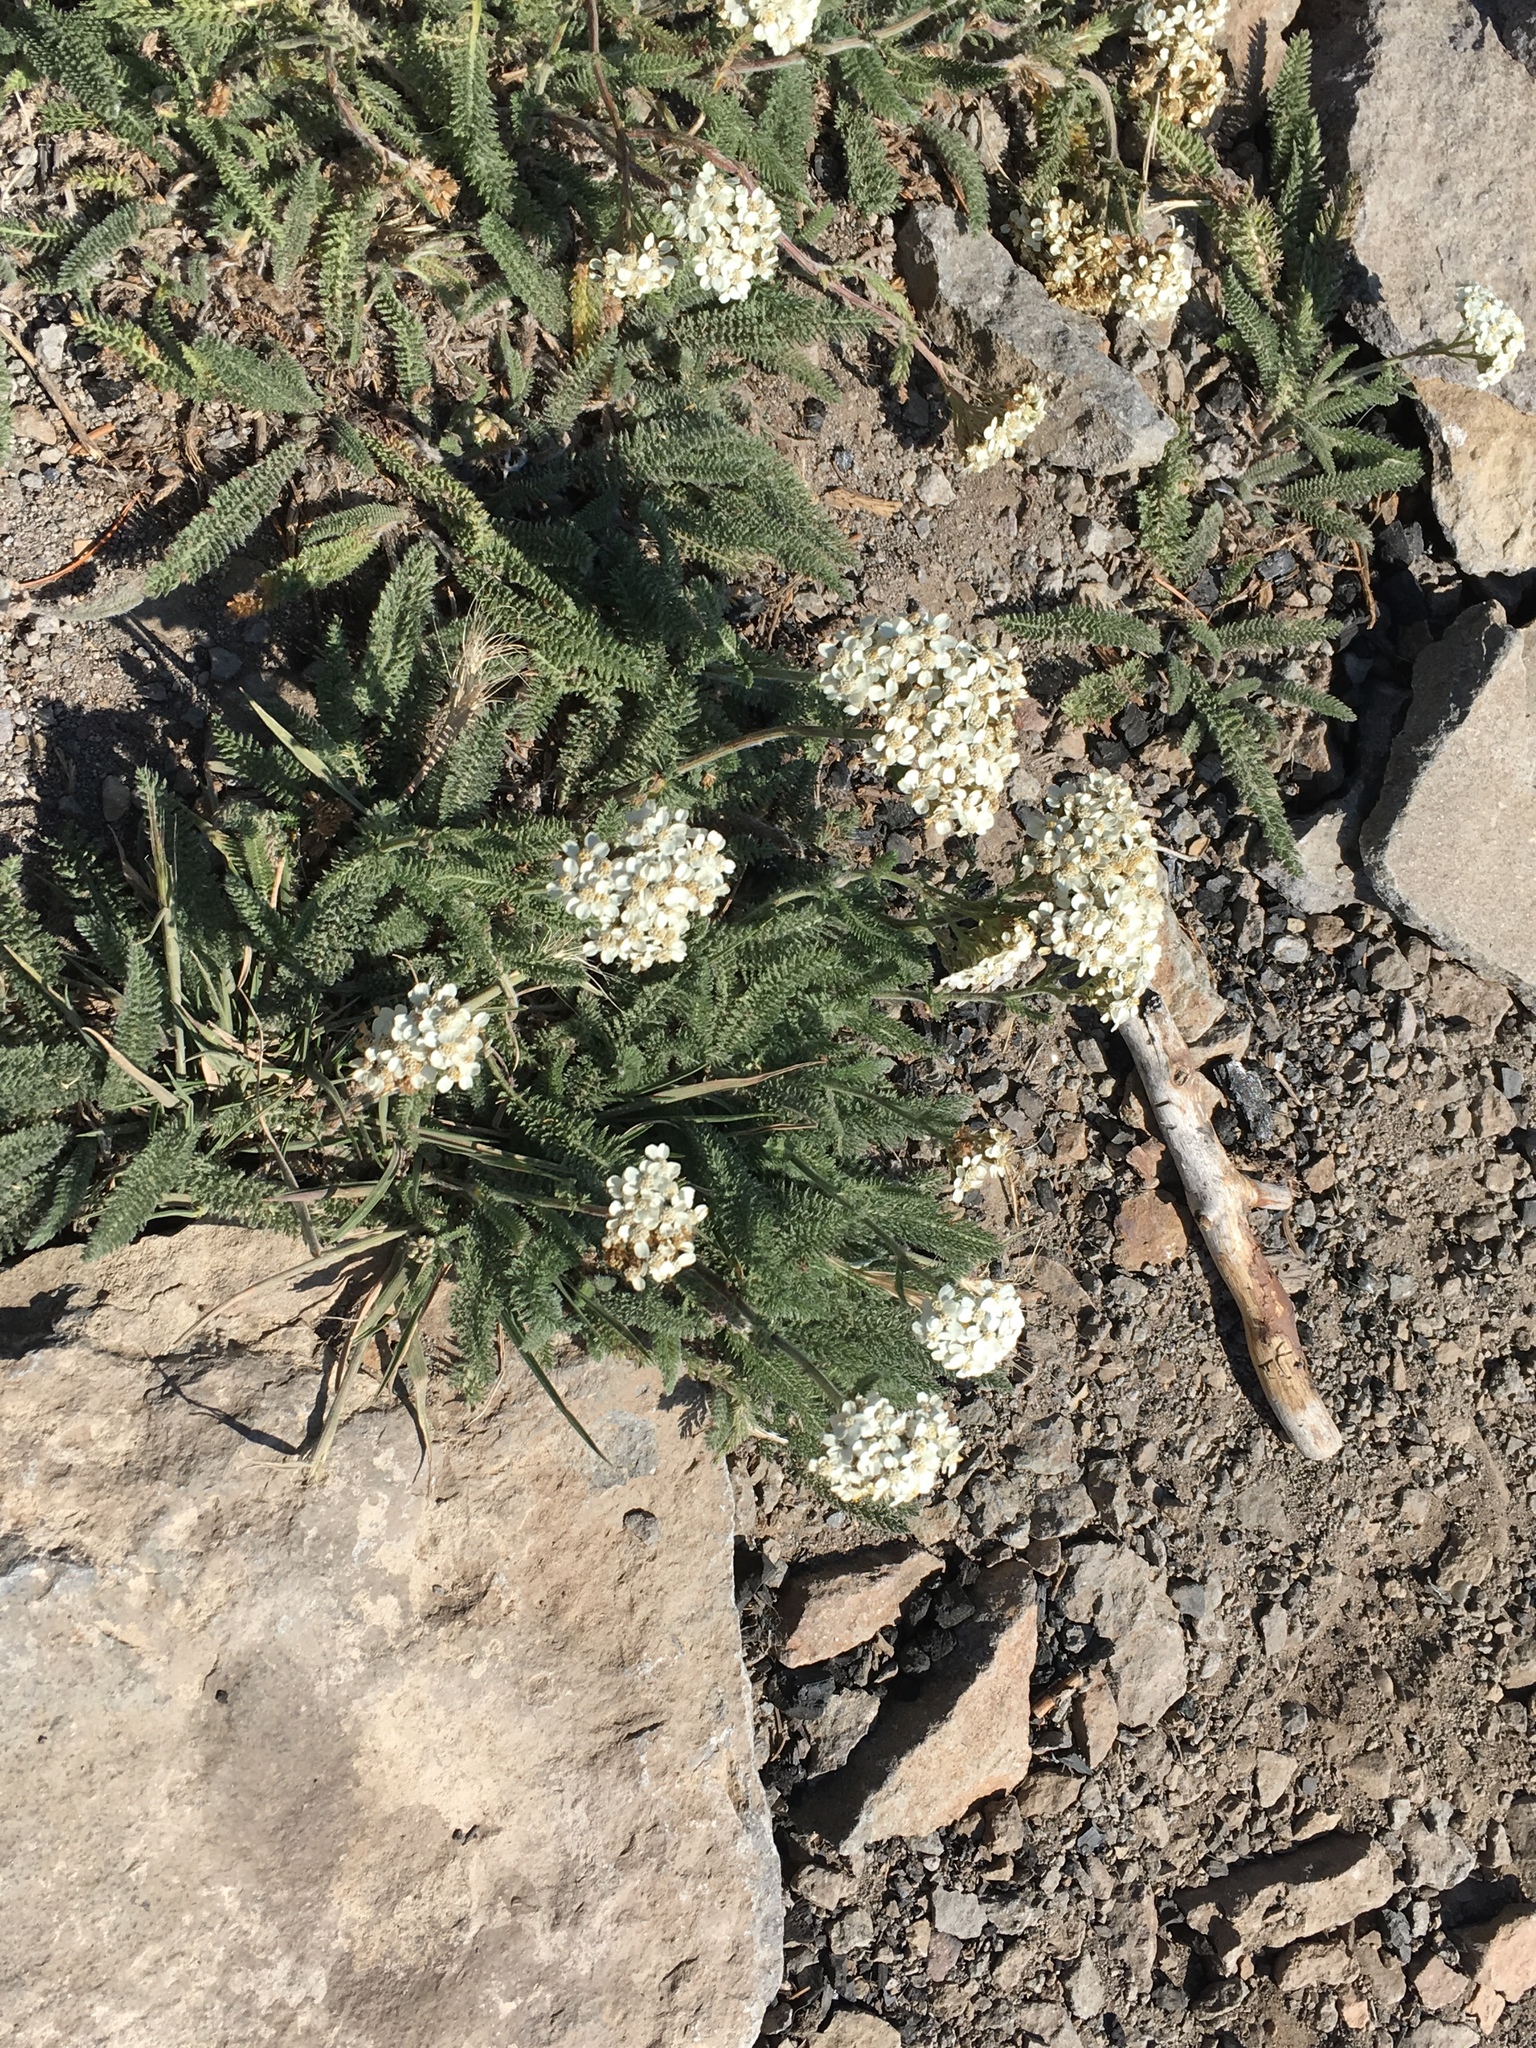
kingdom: Plantae
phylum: Tracheophyta
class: Magnoliopsida
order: Asterales
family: Asteraceae
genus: Achillea
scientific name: Achillea millefolium
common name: Yarrow
